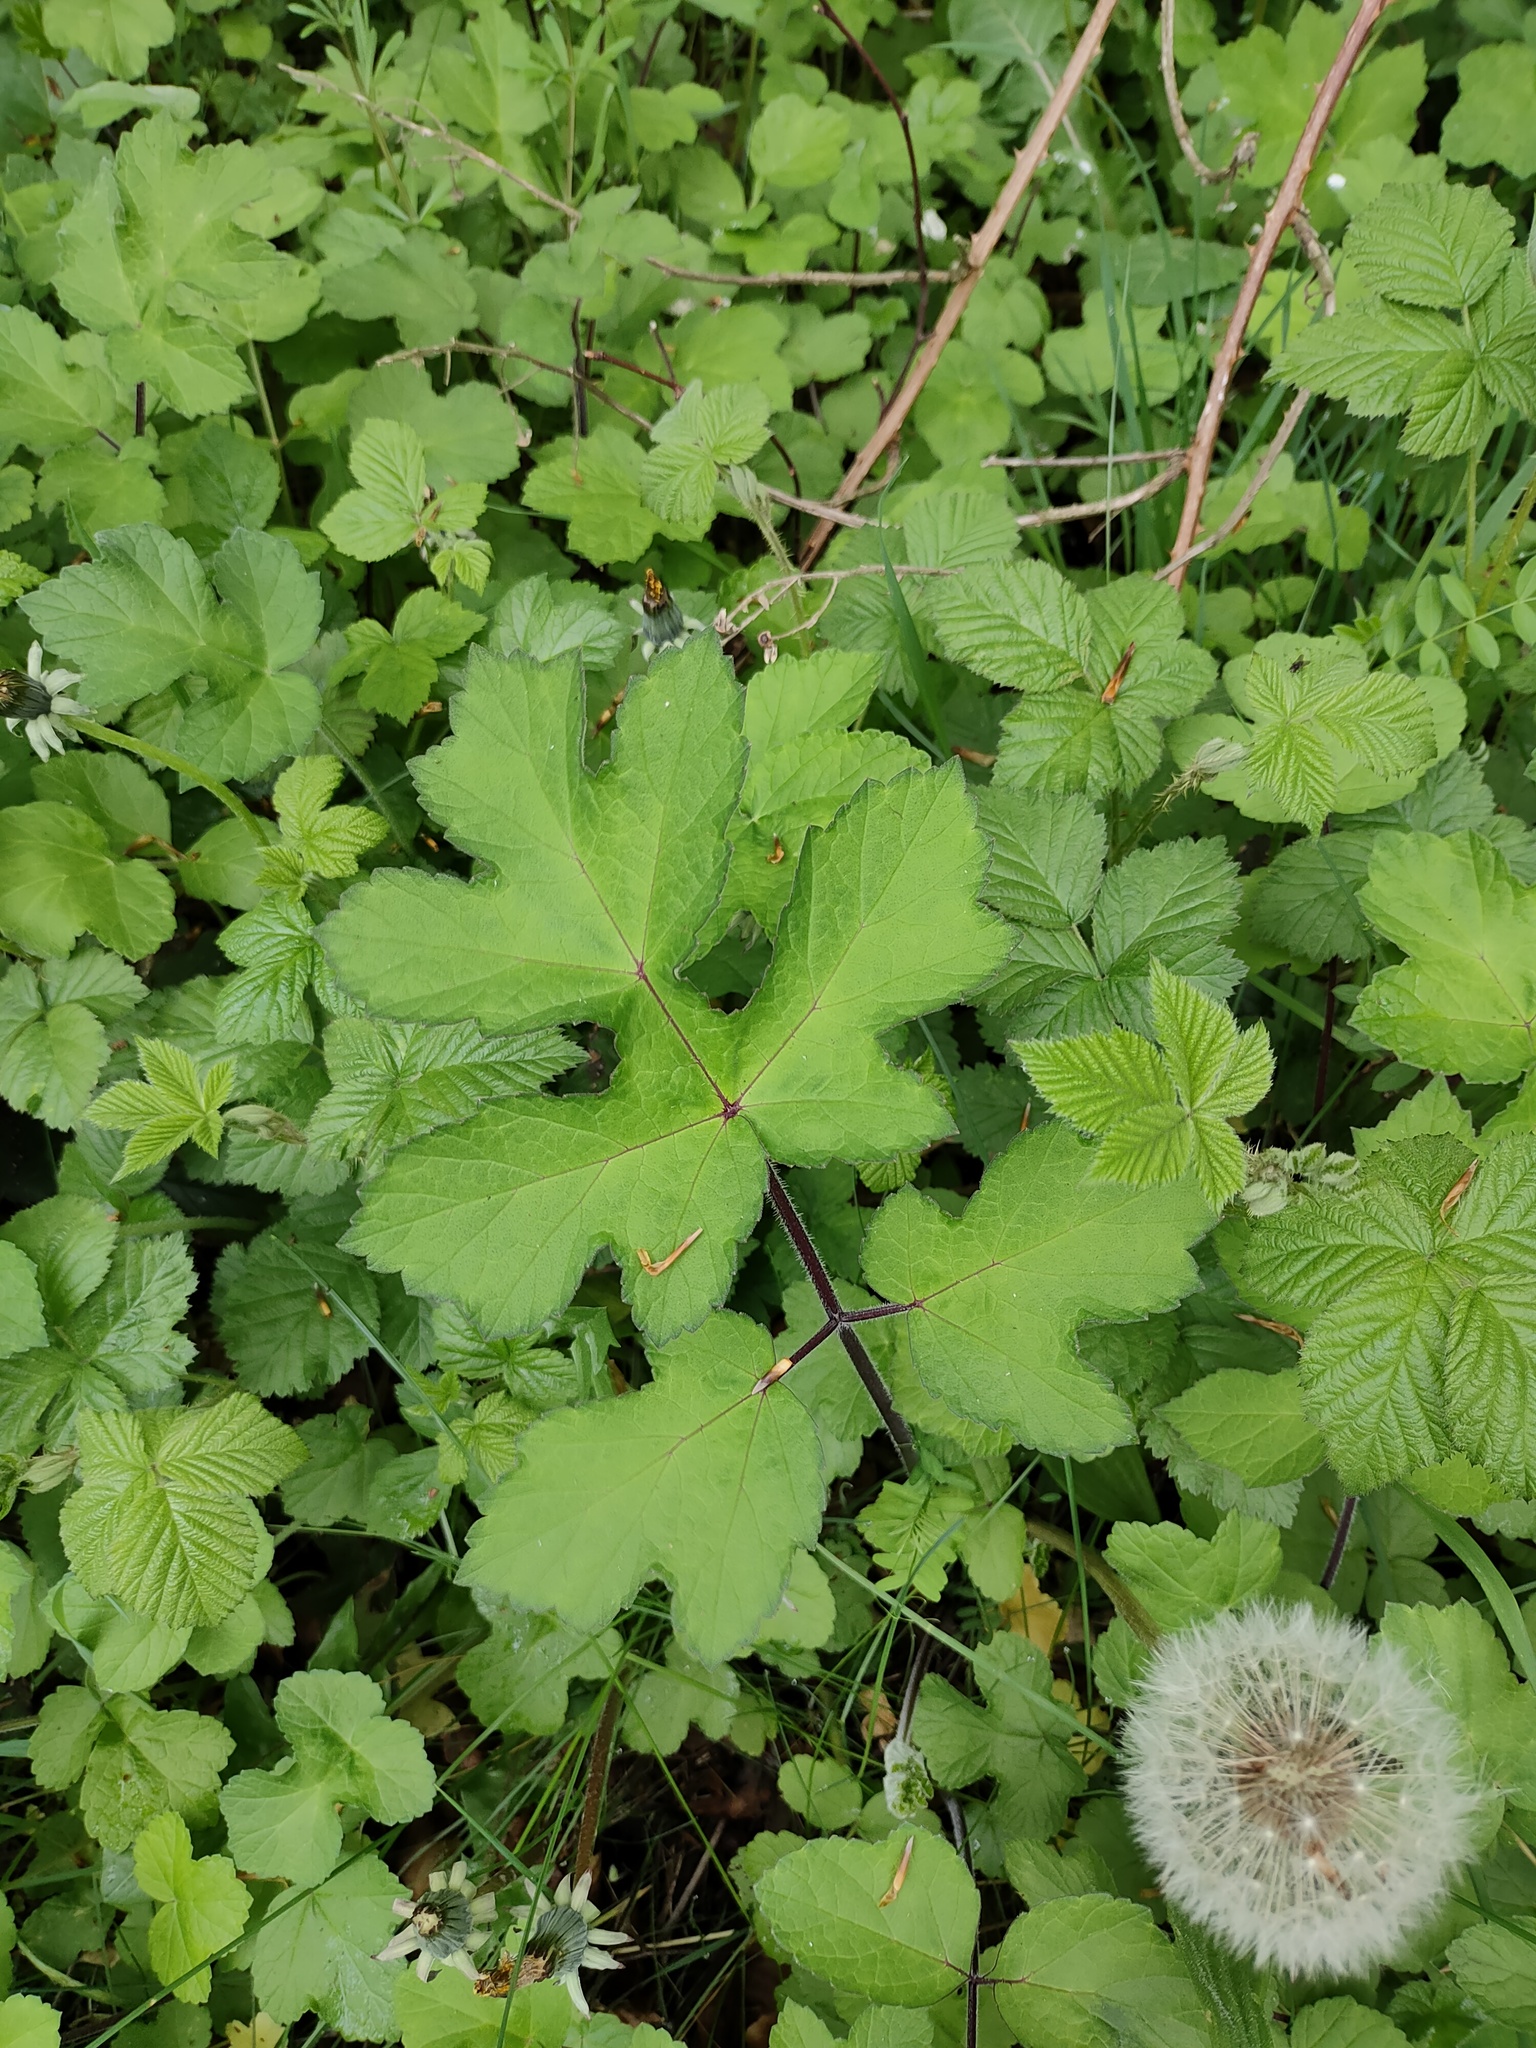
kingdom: Plantae
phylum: Tracheophyta
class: Magnoliopsida
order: Apiales
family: Apiaceae
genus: Heracleum
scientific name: Heracleum sphondylium
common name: Hogweed
